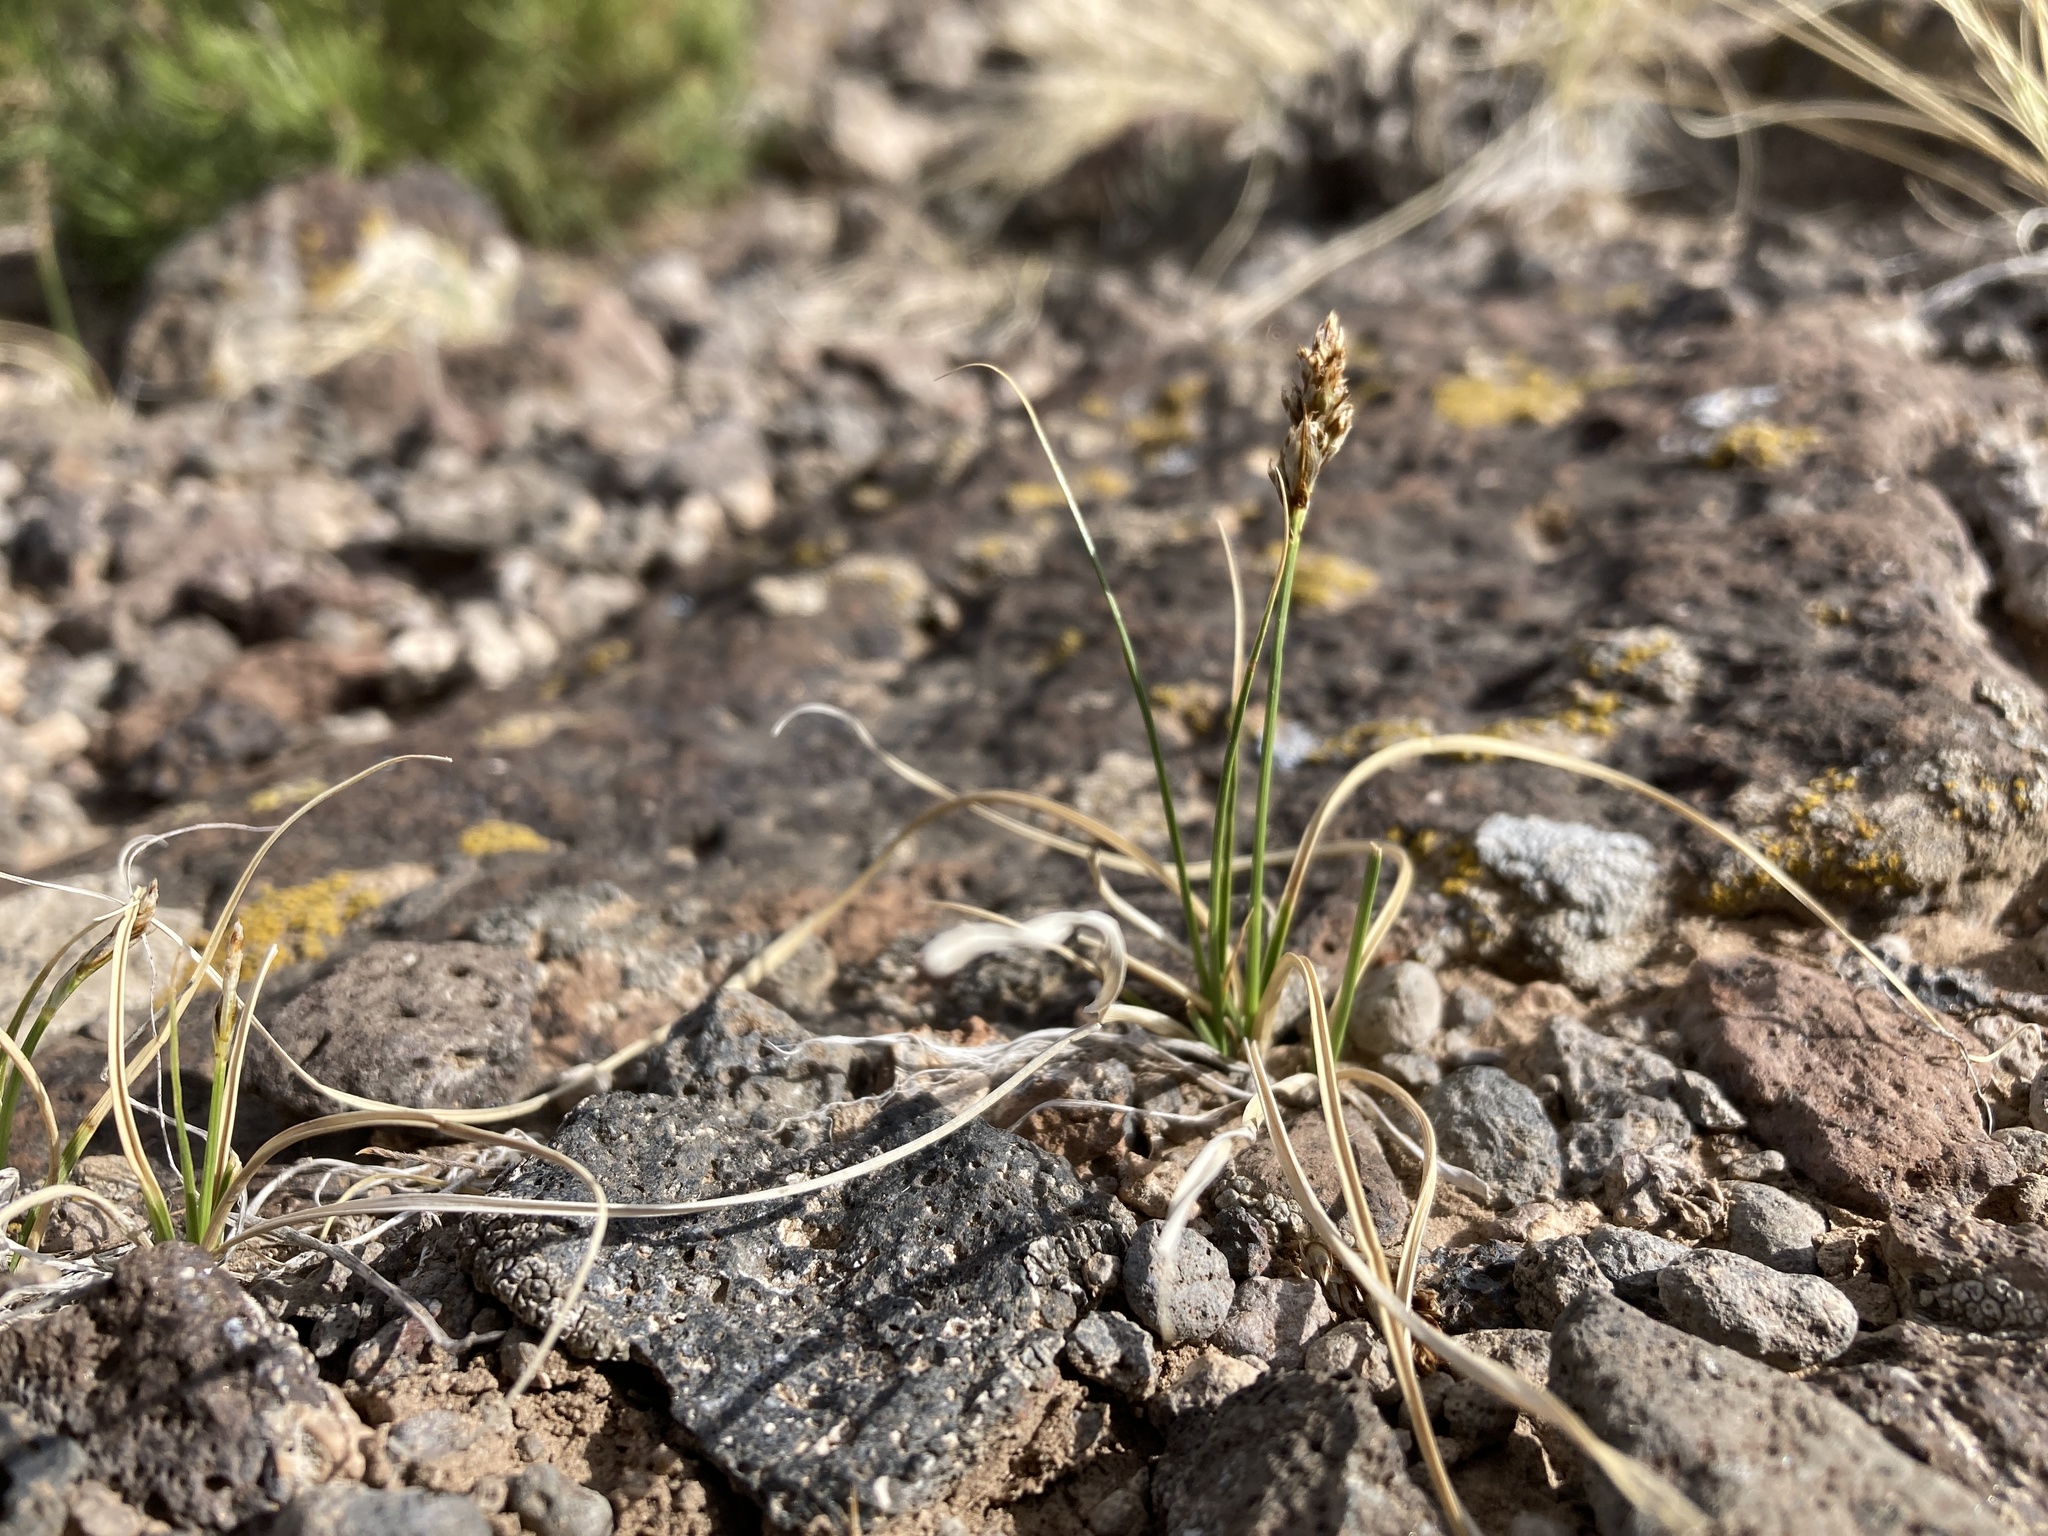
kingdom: Plantae
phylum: Tracheophyta
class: Liliopsida
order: Poales
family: Cyperaceae
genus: Carex
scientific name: Carex duriuscula
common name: Involute-leaved sedge
